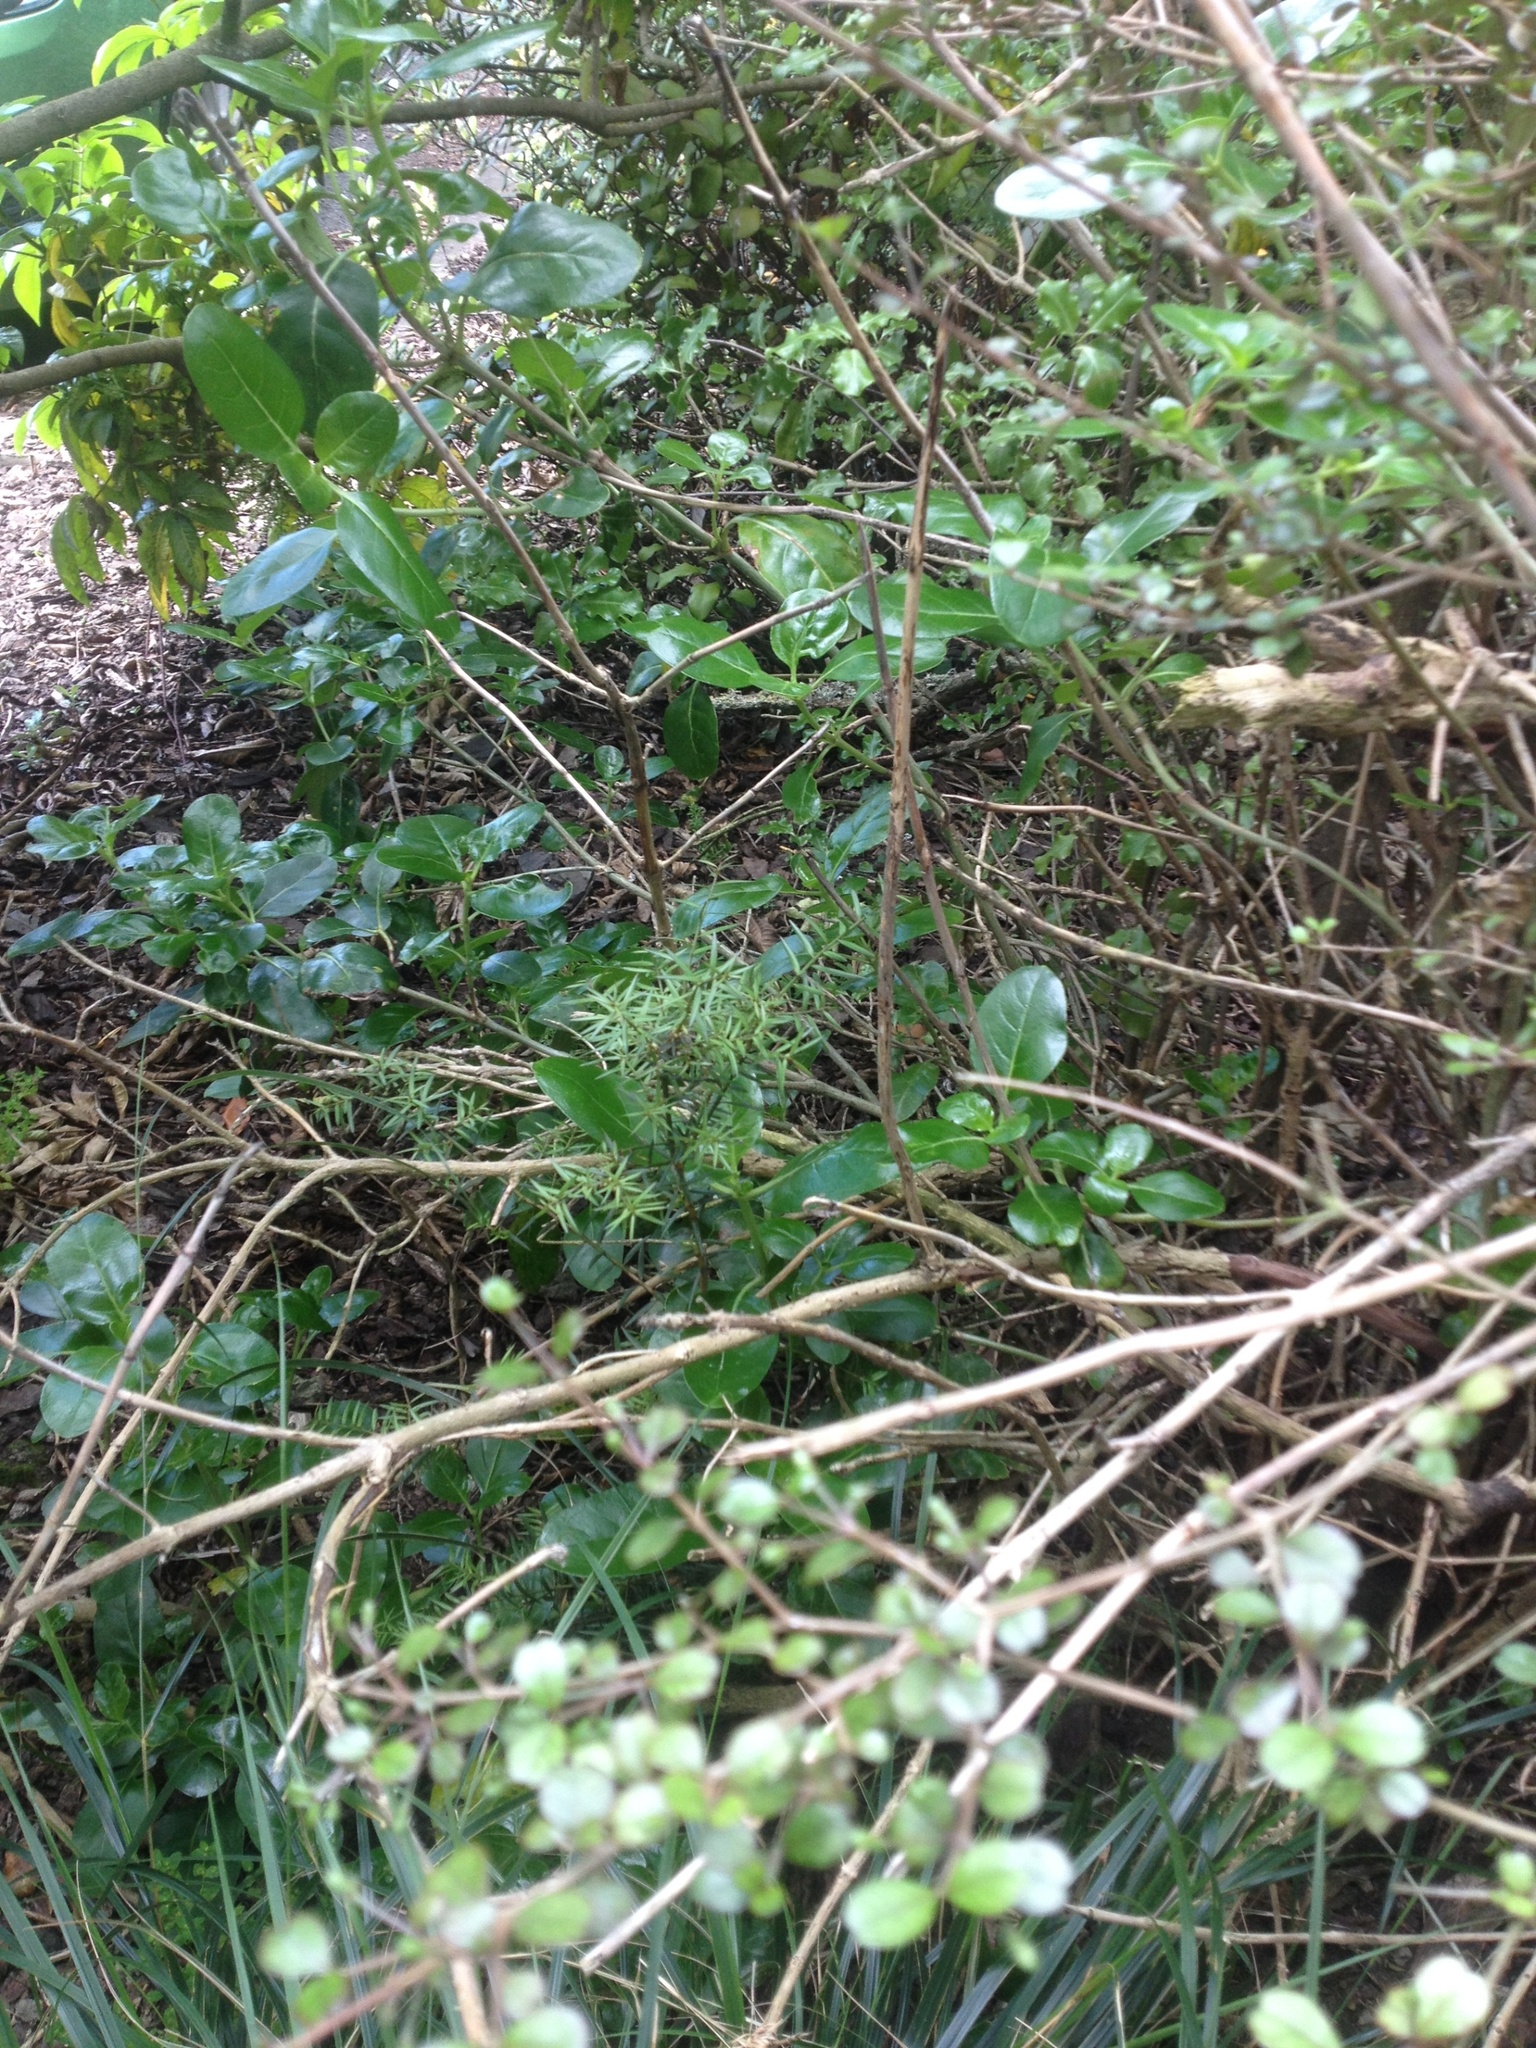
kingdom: Plantae
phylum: Tracheophyta
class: Pinopsida
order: Pinales
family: Podocarpaceae
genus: Podocarpus
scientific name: Podocarpus totara
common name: Totara
